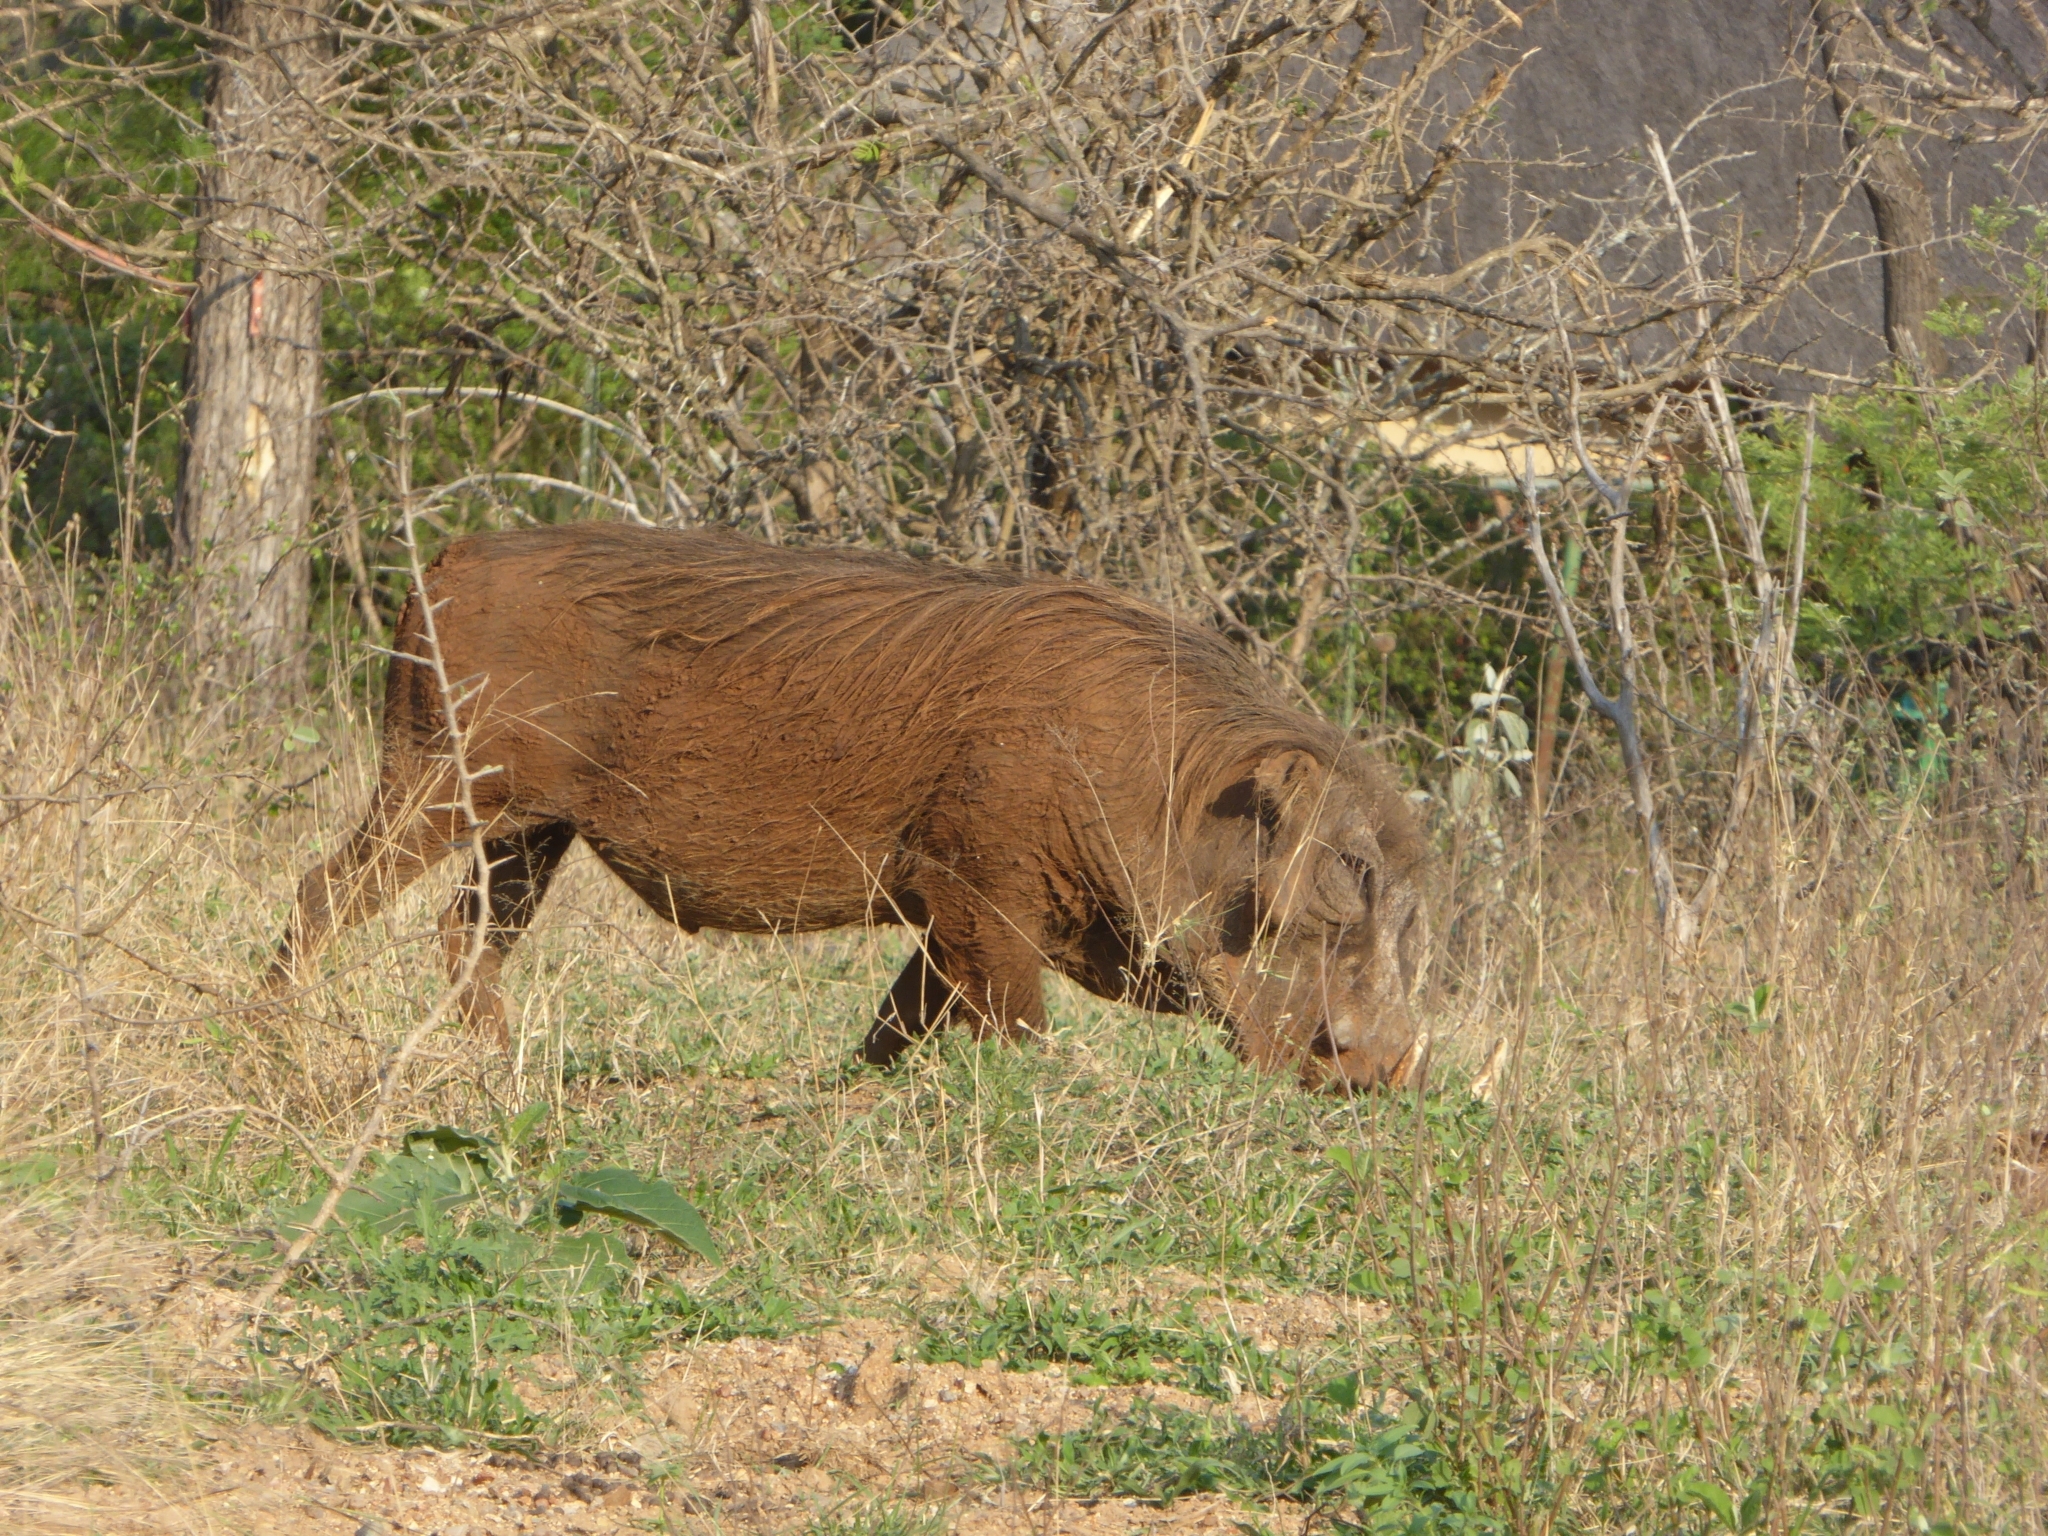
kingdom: Animalia
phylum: Chordata
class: Mammalia
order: Artiodactyla
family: Suidae
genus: Phacochoerus
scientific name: Phacochoerus africanus
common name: Common warthog
